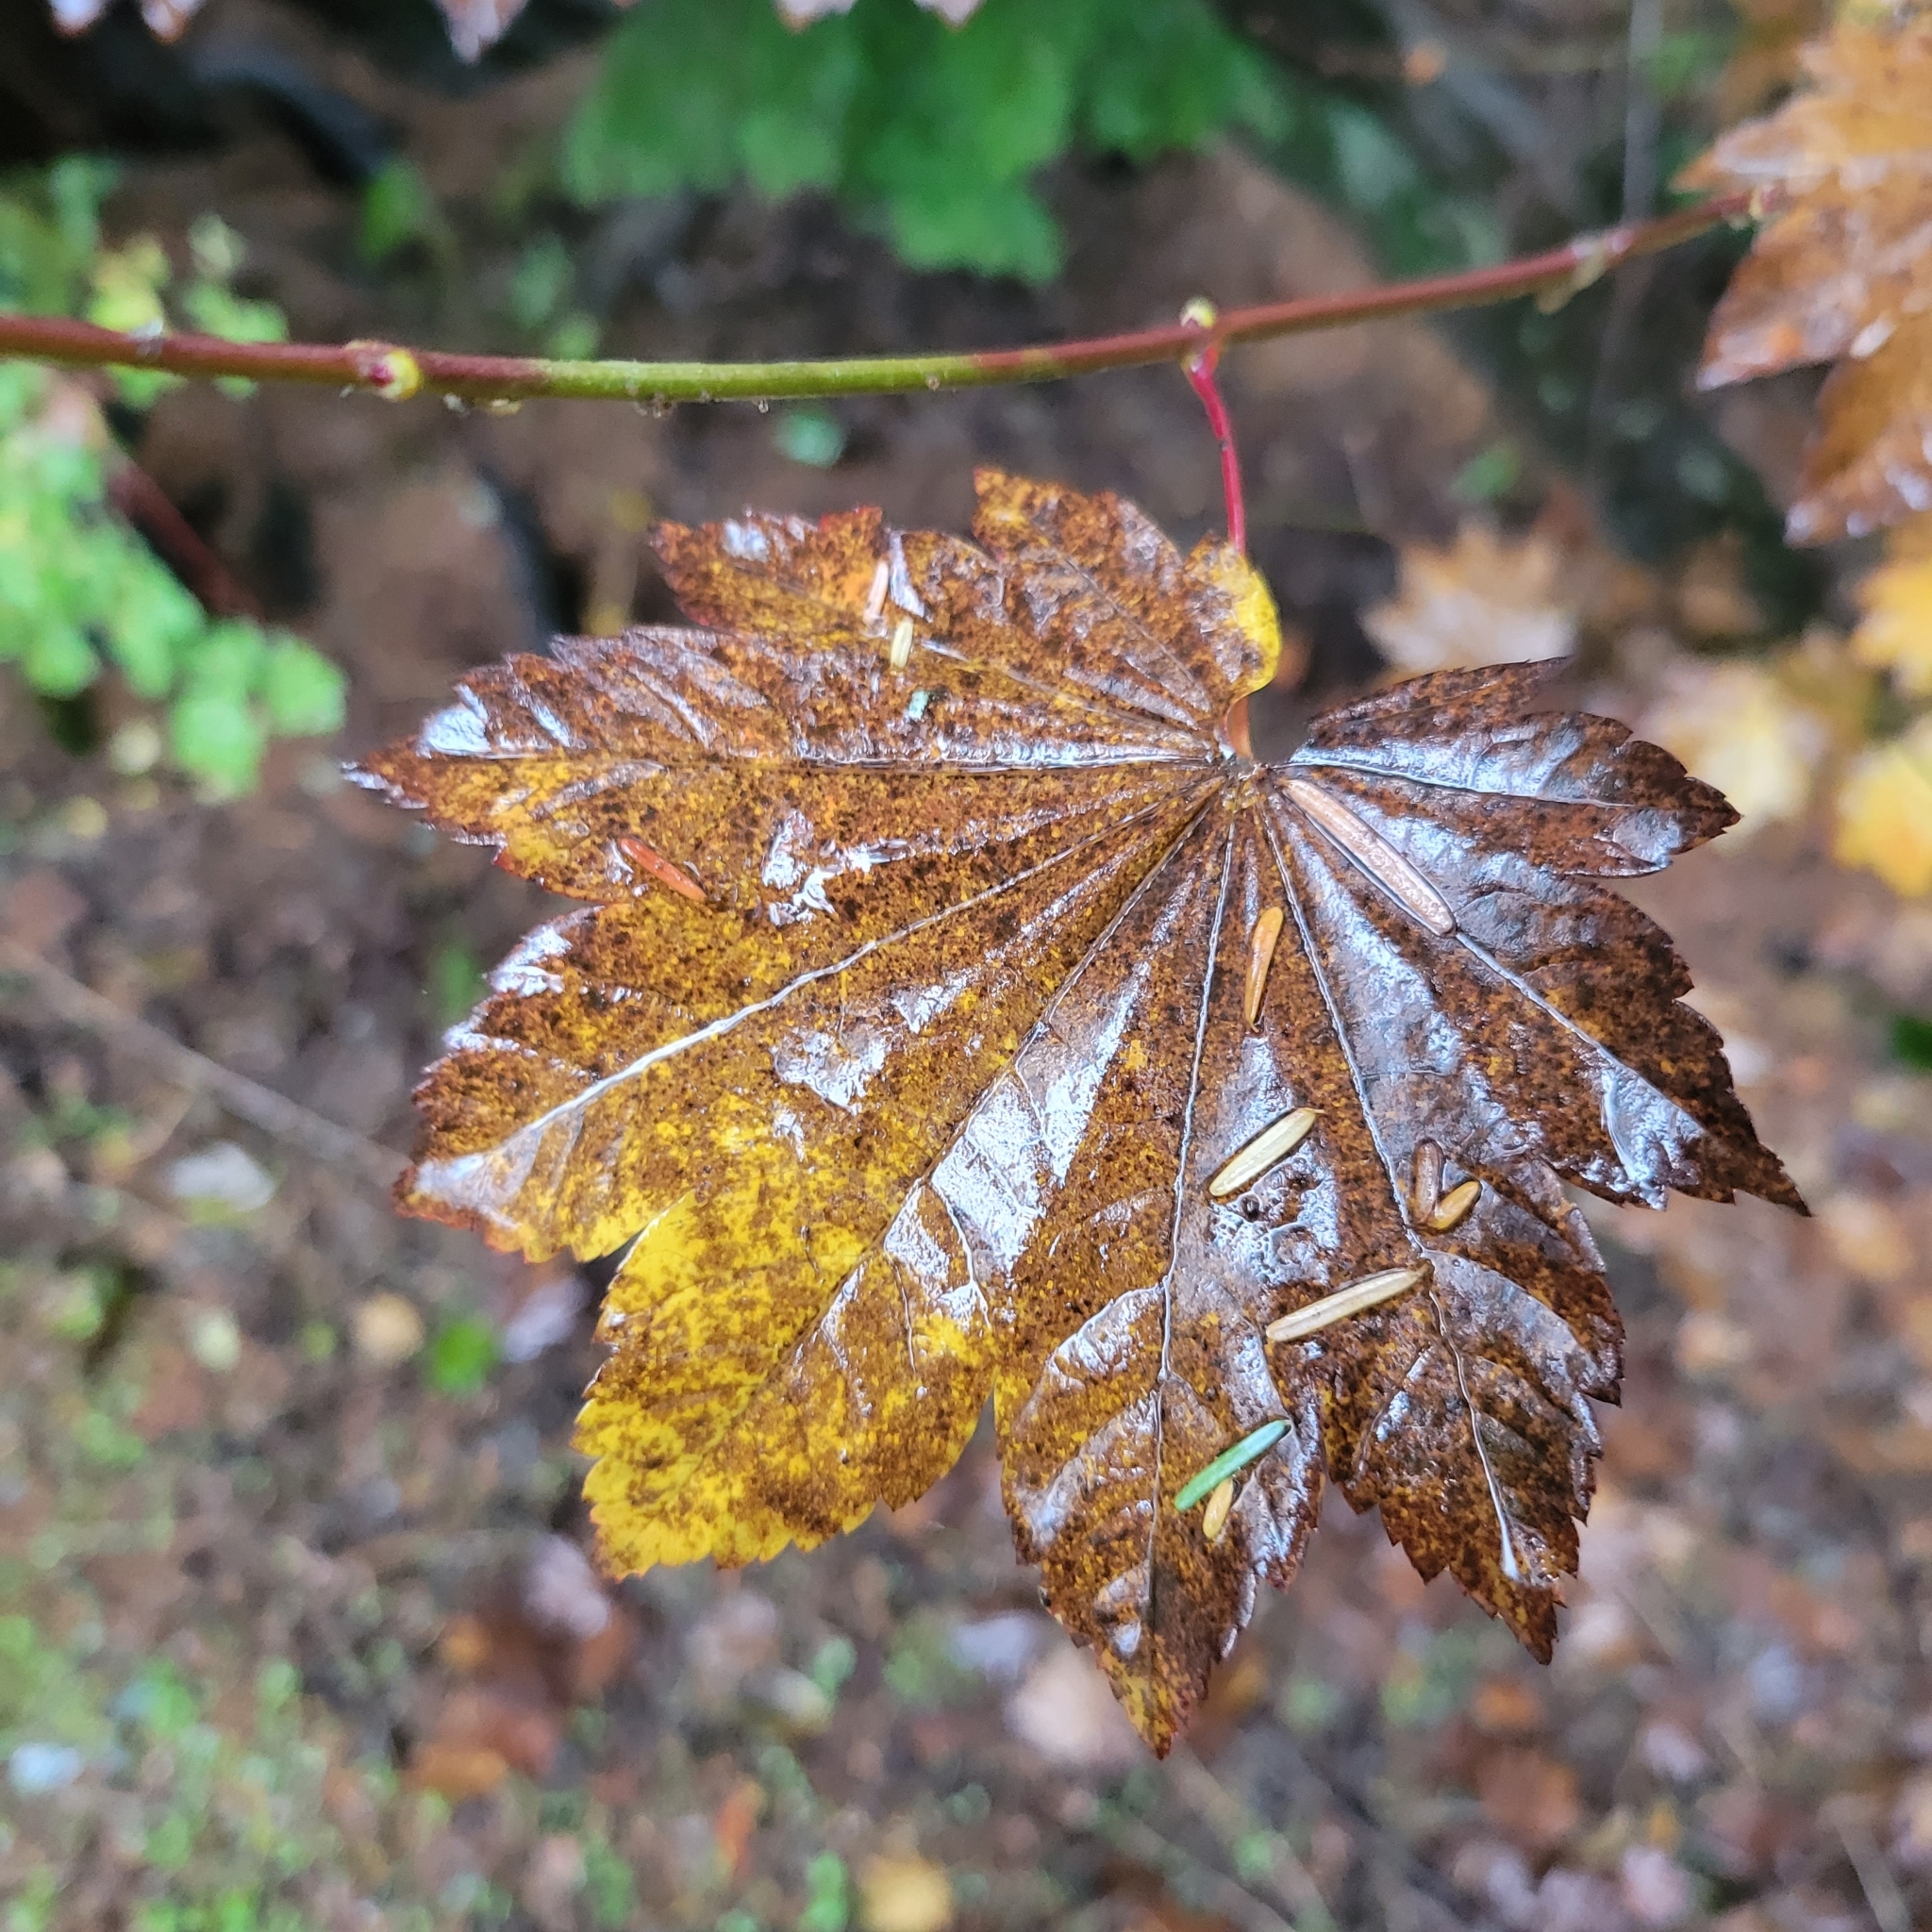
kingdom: Plantae
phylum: Tracheophyta
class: Magnoliopsida
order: Sapindales
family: Sapindaceae
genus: Acer
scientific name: Acer circinatum
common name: Vine maple
